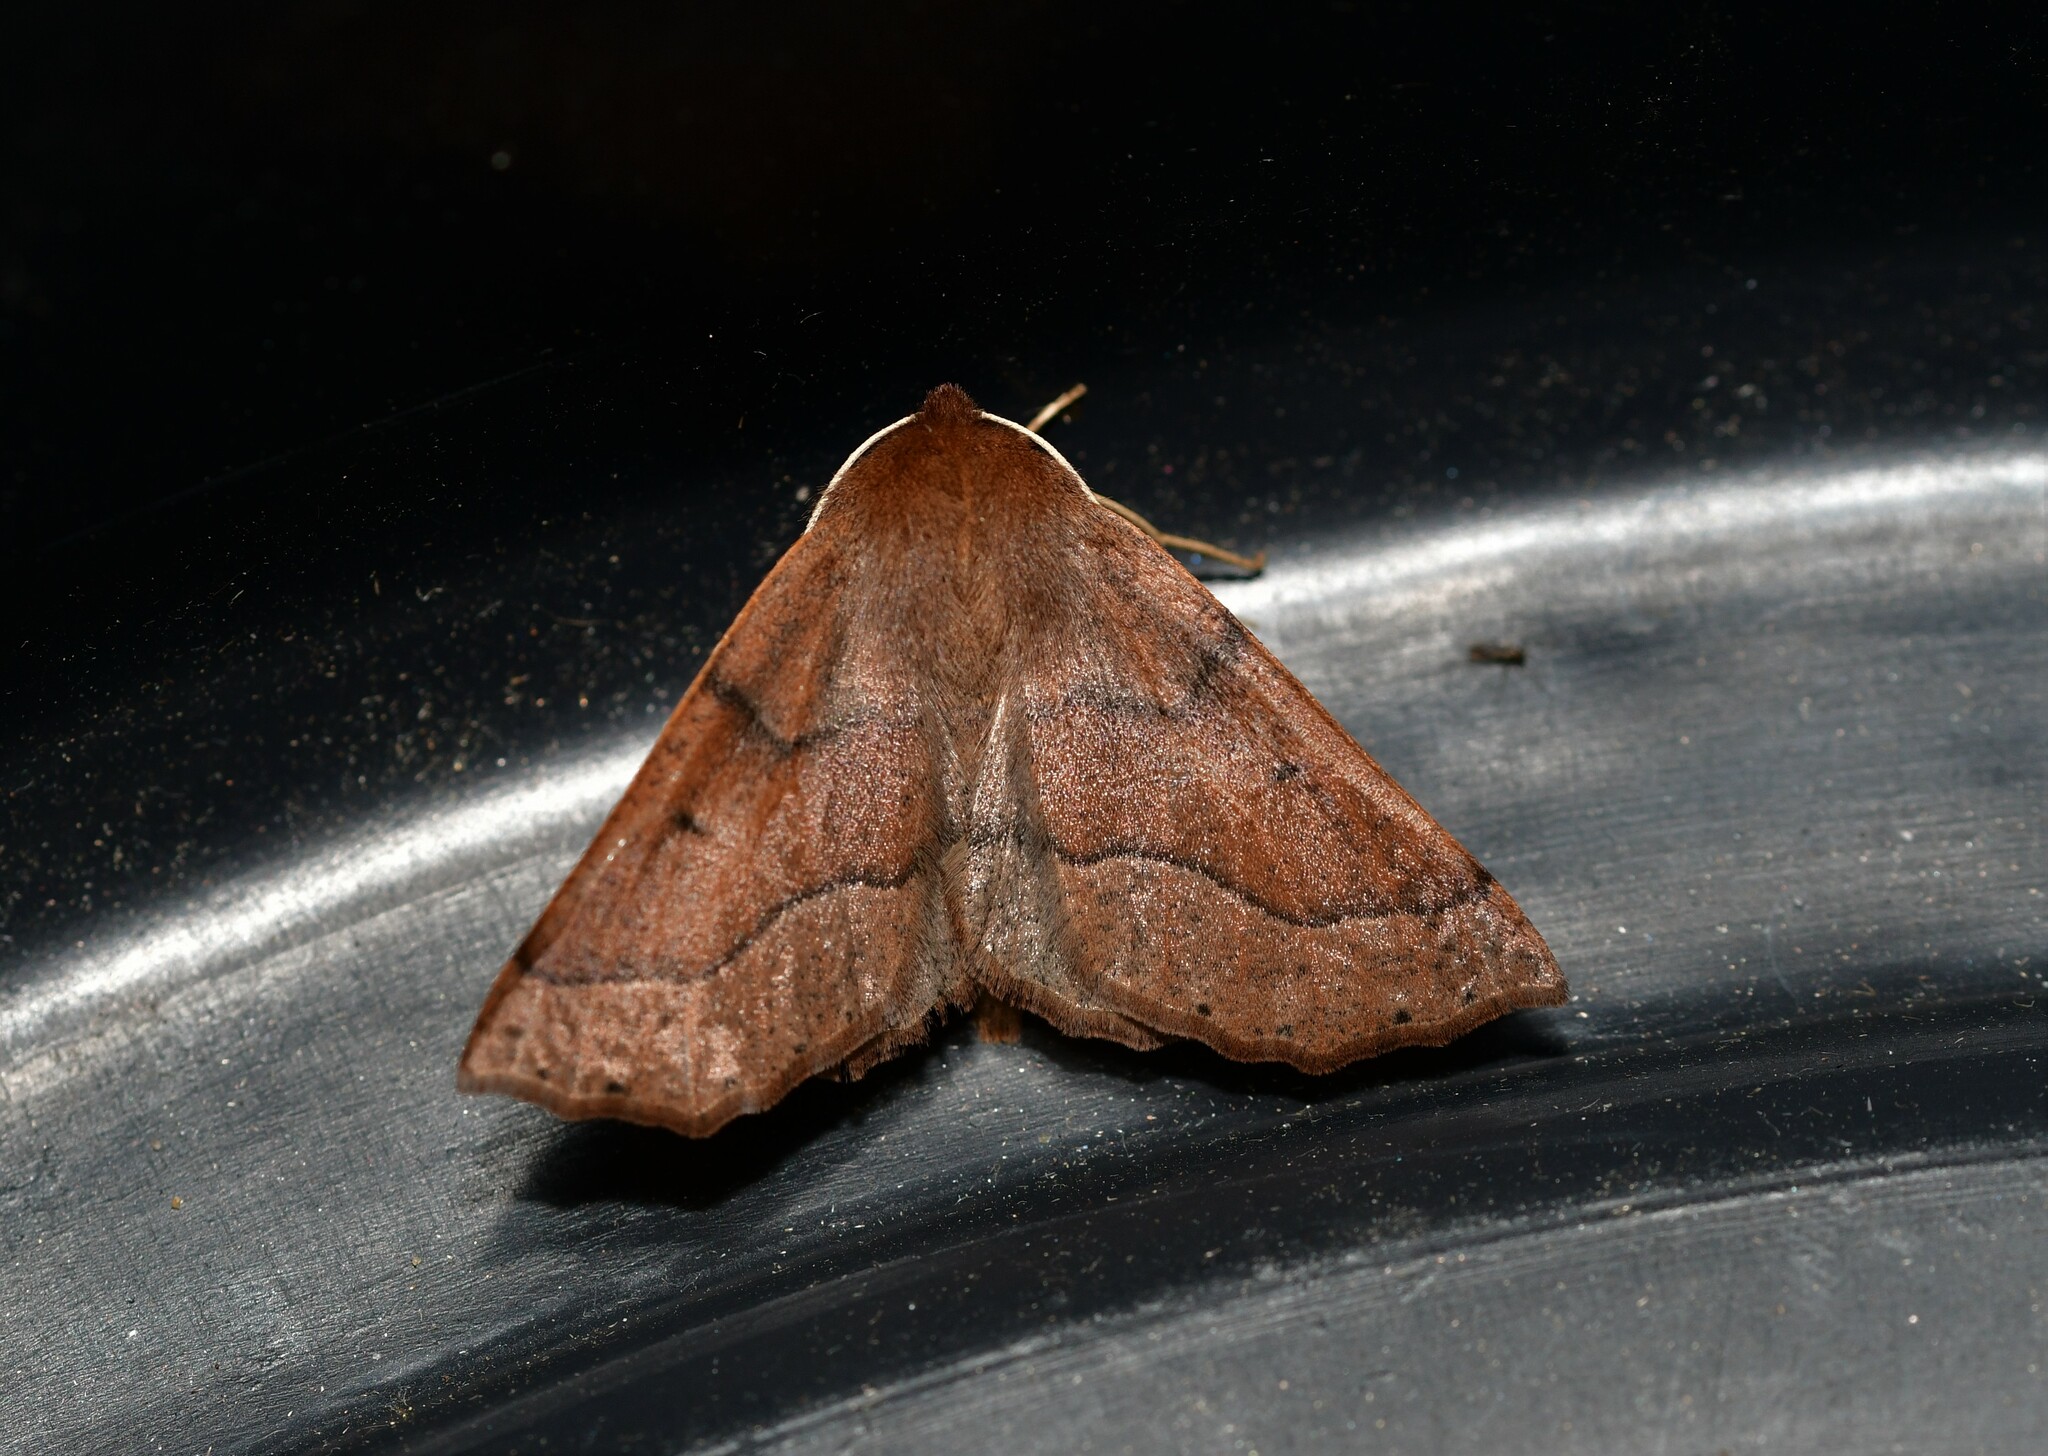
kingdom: Animalia
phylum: Arthropoda
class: Insecta
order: Lepidoptera
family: Geometridae
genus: Crocallis
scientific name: Crocallis tusciaria
